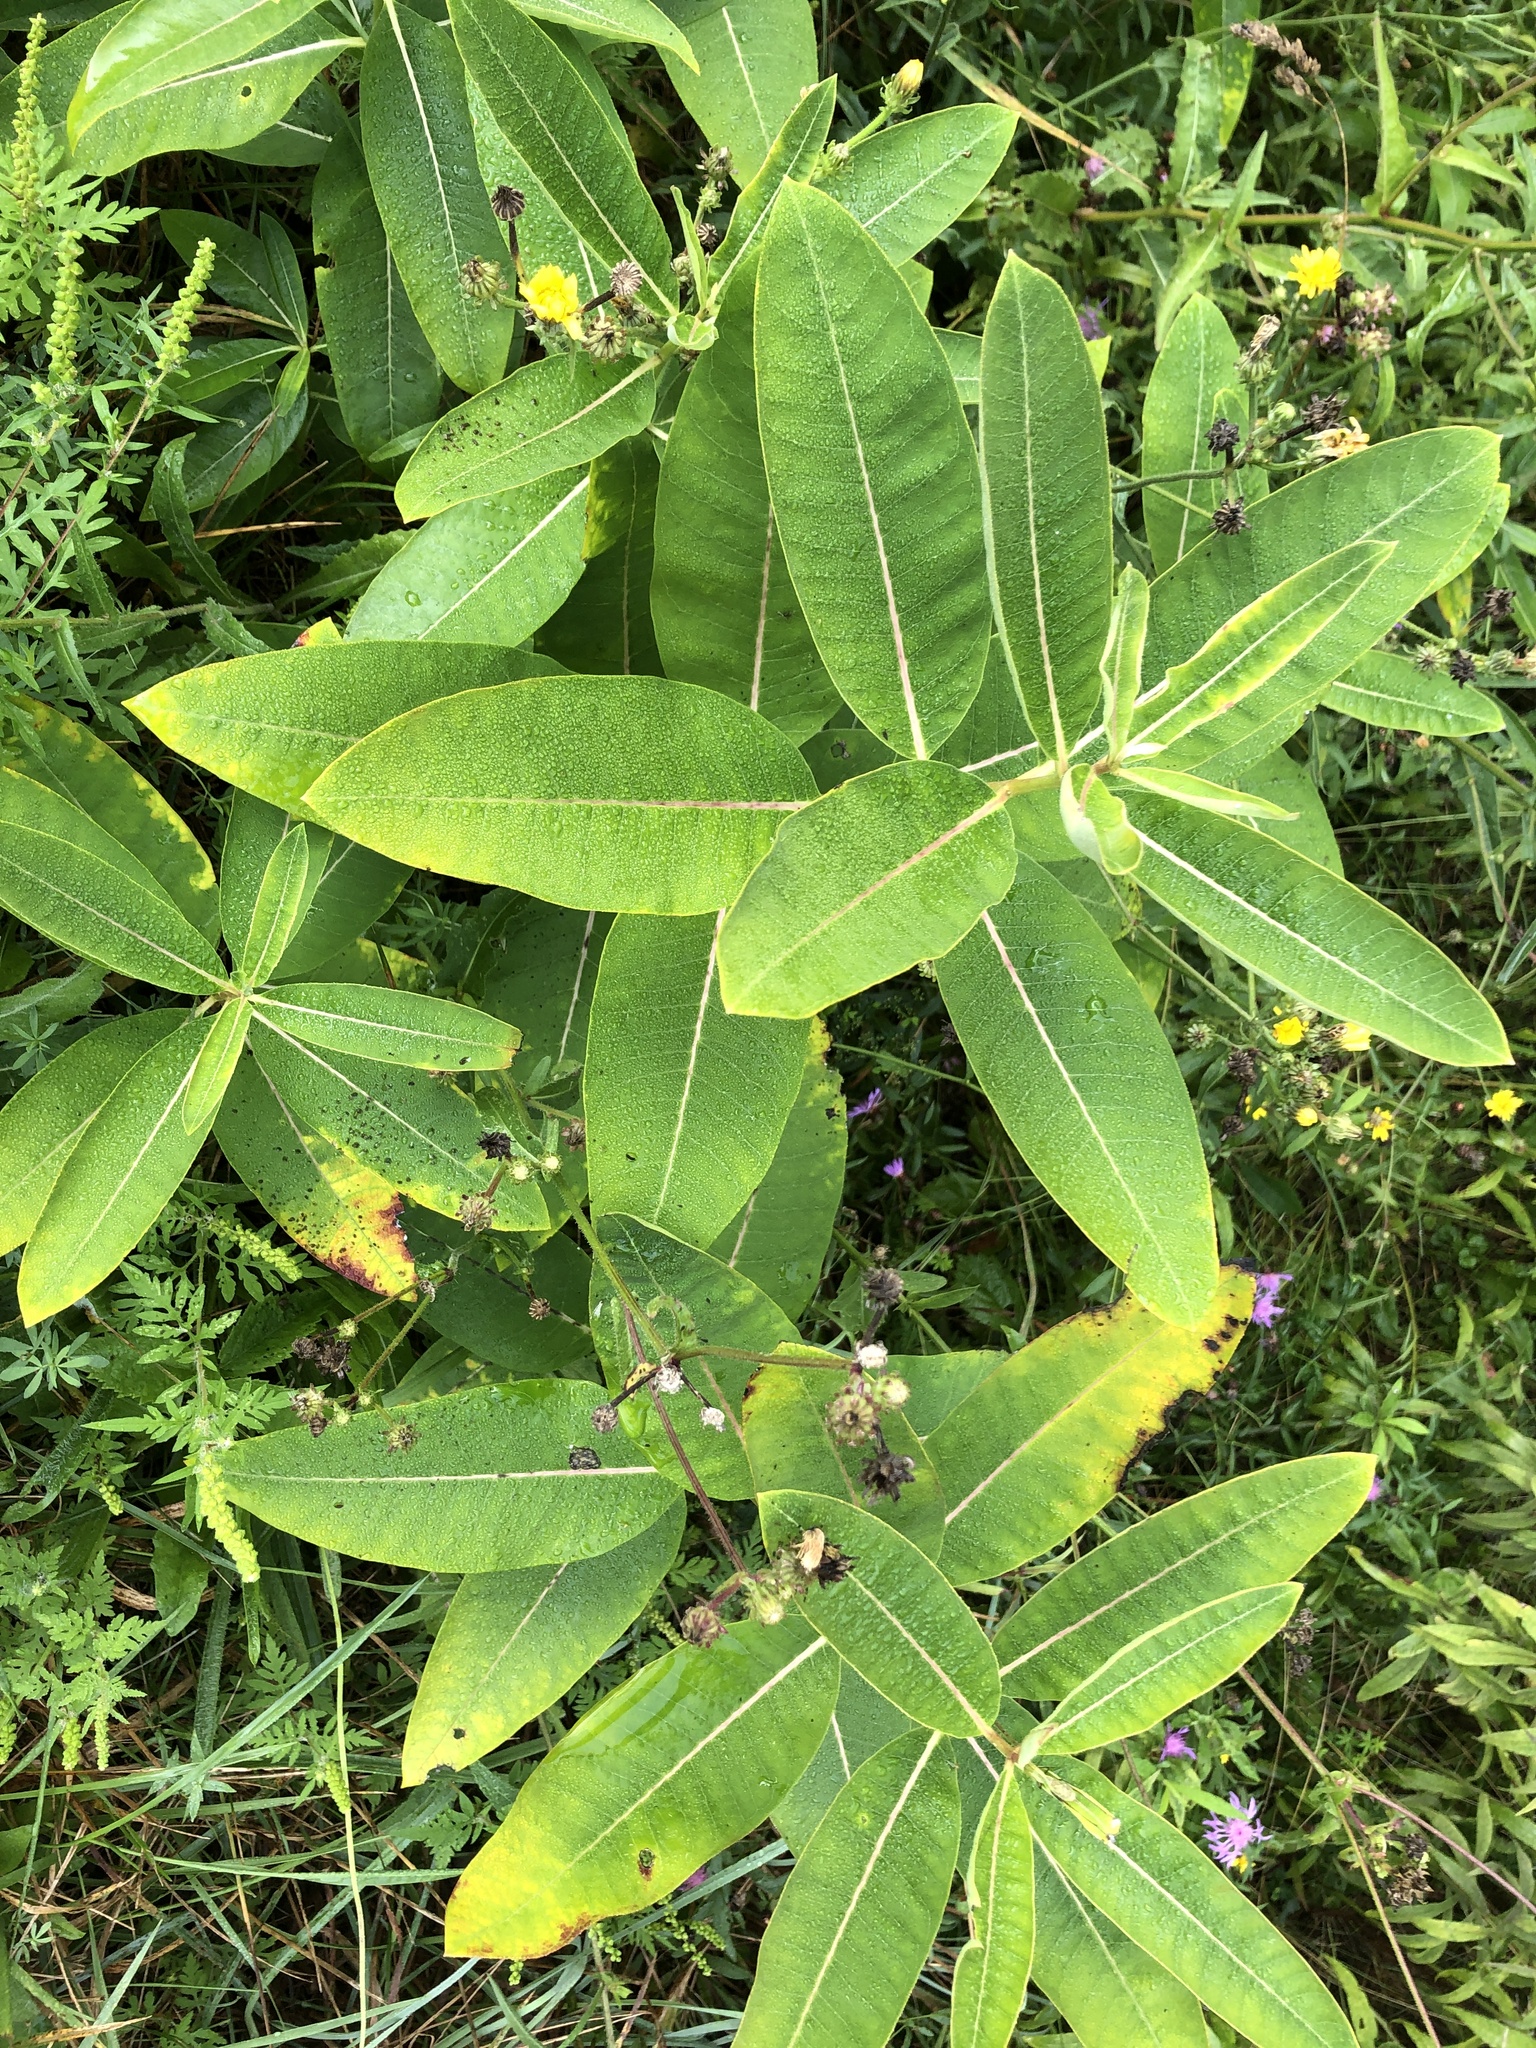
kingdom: Plantae
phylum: Tracheophyta
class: Magnoliopsida
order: Gentianales
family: Apocynaceae
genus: Asclepias
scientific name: Asclepias syriaca
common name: Common milkweed
